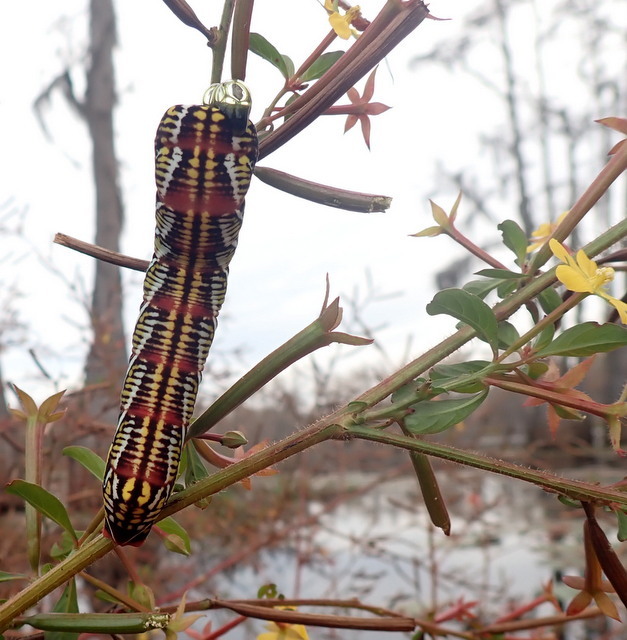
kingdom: Animalia
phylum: Arthropoda
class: Insecta
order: Lepidoptera
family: Sphingidae
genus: Eumorpha
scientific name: Eumorpha fasciatus
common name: Banded sphinx
